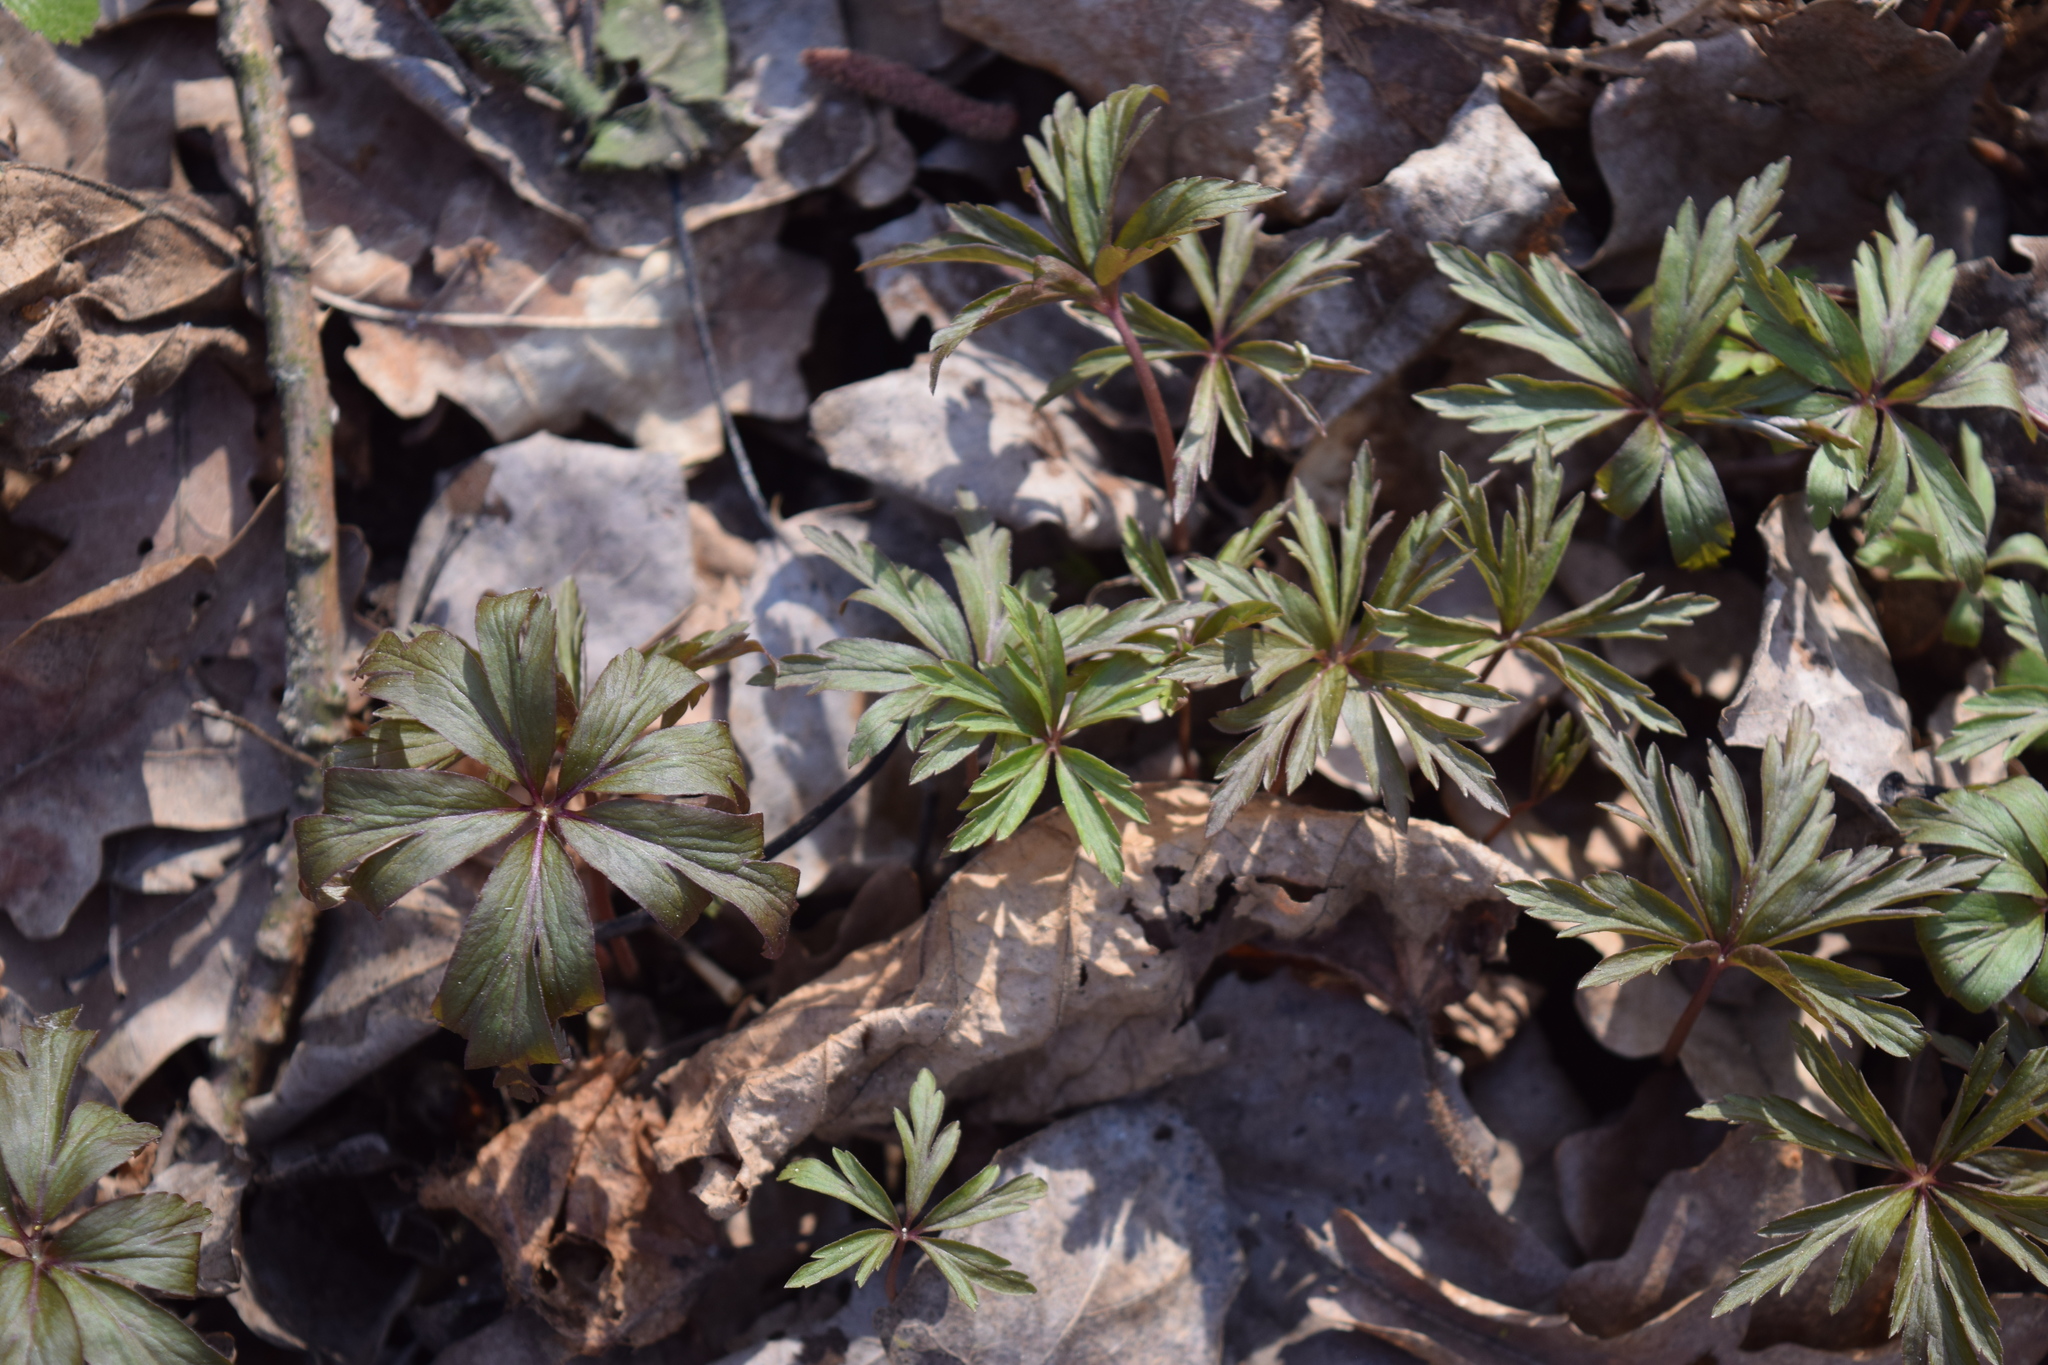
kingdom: Plantae
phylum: Tracheophyta
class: Magnoliopsida
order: Ranunculales
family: Ranunculaceae
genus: Anemone
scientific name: Anemone ranunculoides
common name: Yellow anemone
